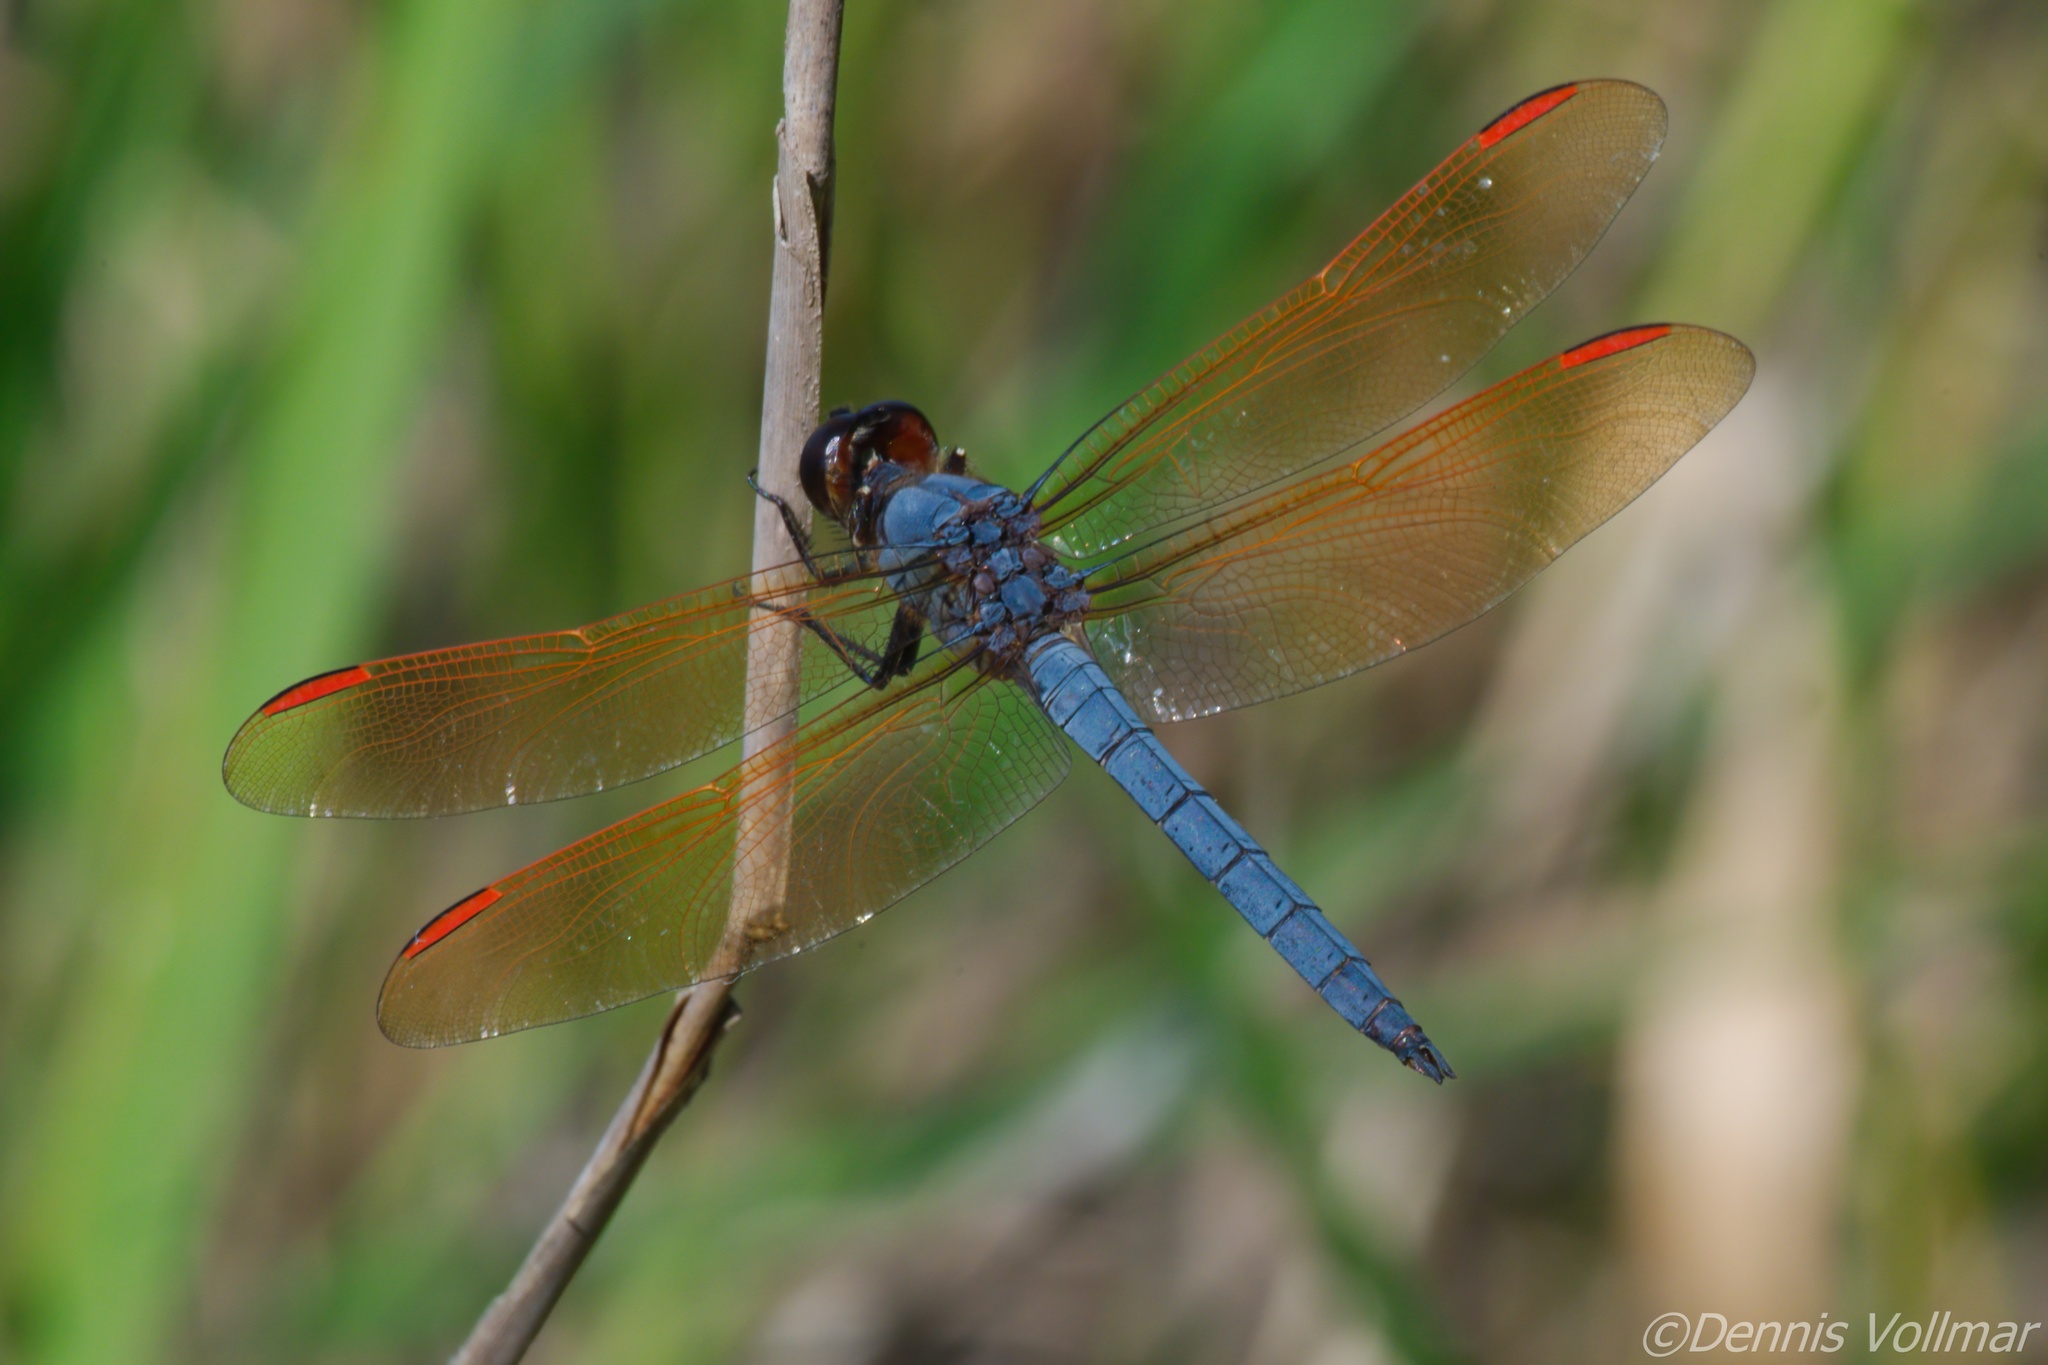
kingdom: Animalia
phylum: Arthropoda
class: Insecta
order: Odonata
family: Libellulidae
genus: Libellula
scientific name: Libellula jesseana
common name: Purple skimmer
